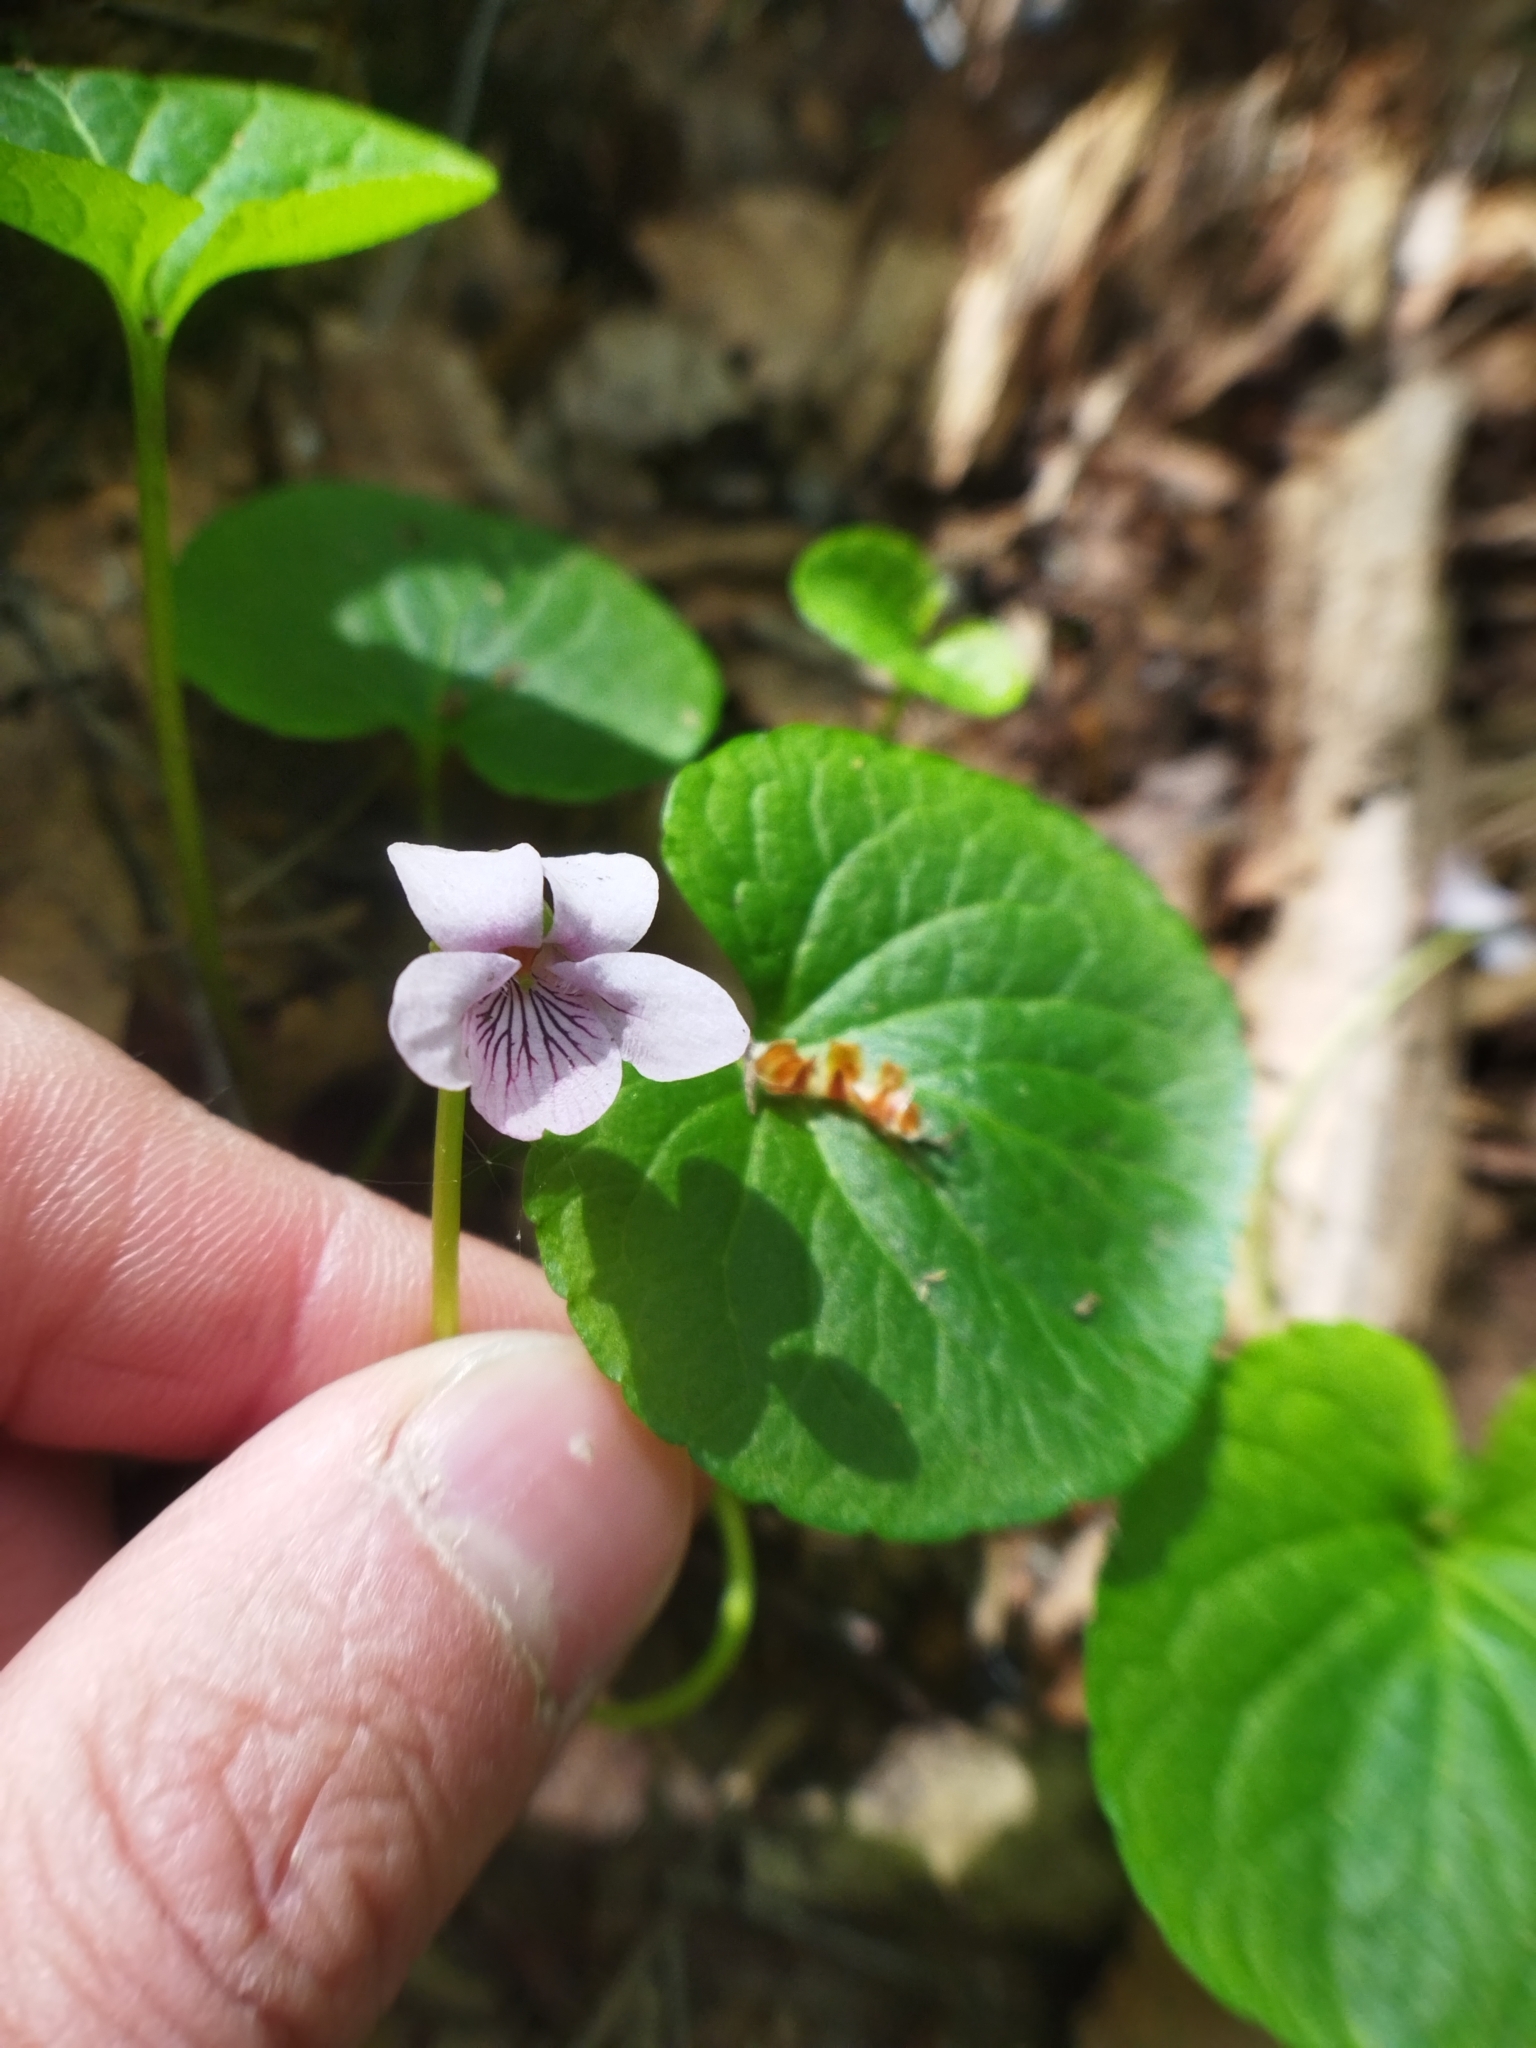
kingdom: Plantae
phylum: Tracheophyta
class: Magnoliopsida
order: Malpighiales
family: Violaceae
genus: Viola
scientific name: Viola palustris
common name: Marsh violet
